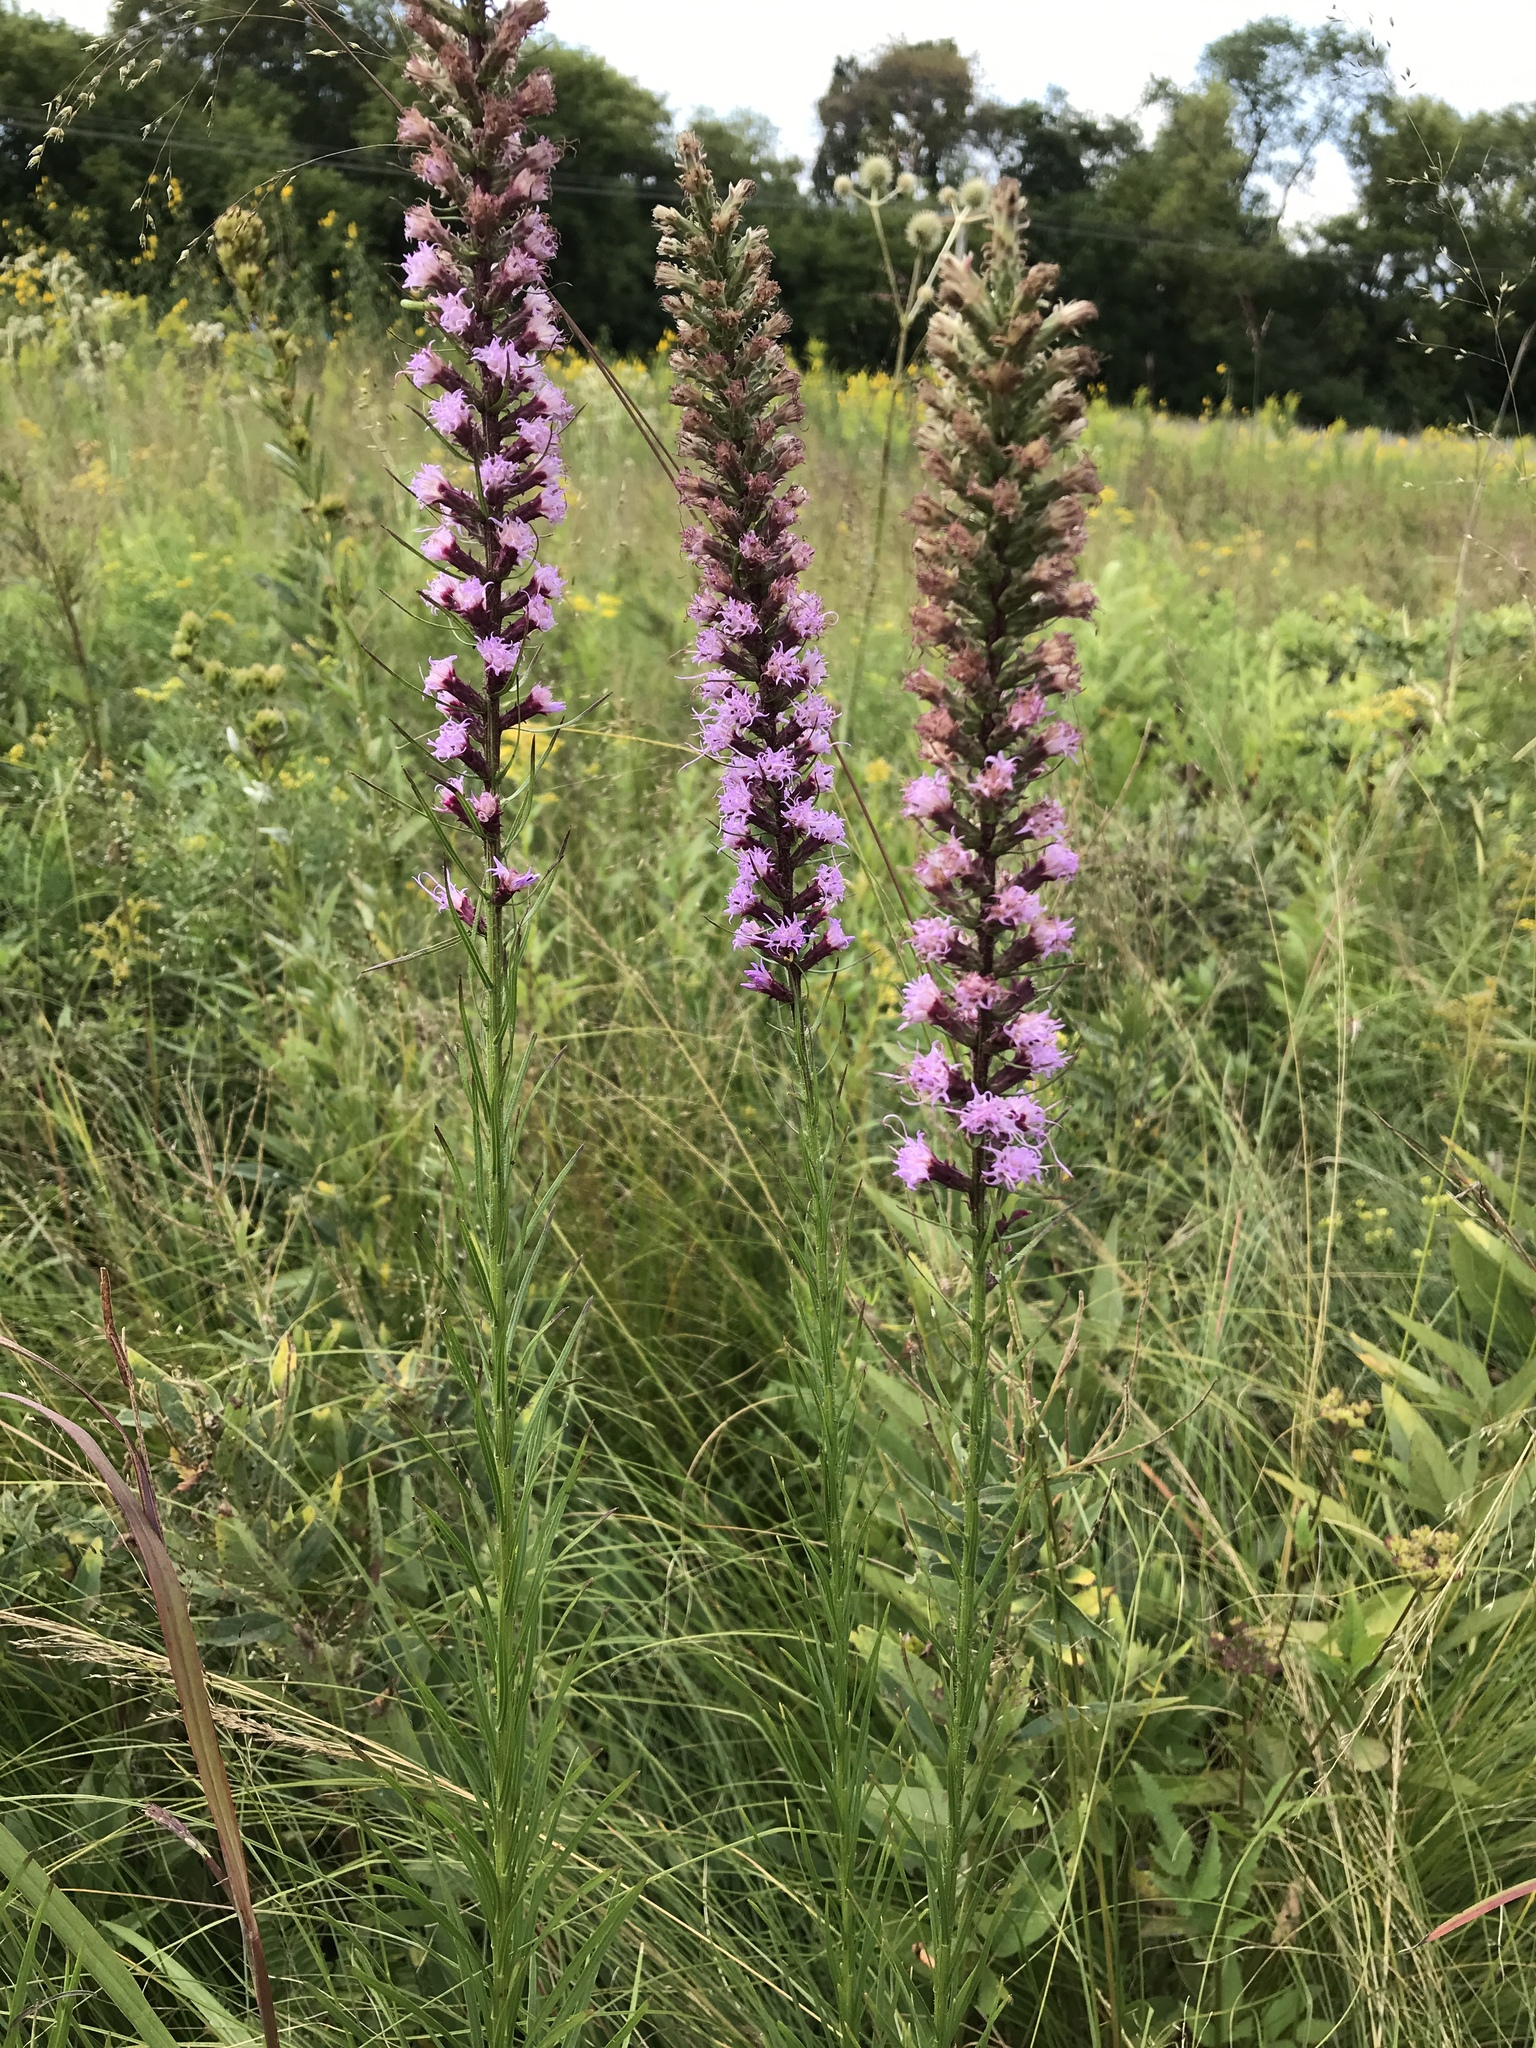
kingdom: Plantae
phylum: Tracheophyta
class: Magnoliopsida
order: Asterales
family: Asteraceae
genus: Liatris
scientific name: Liatris pycnostachya
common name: Cattail gayfeather
